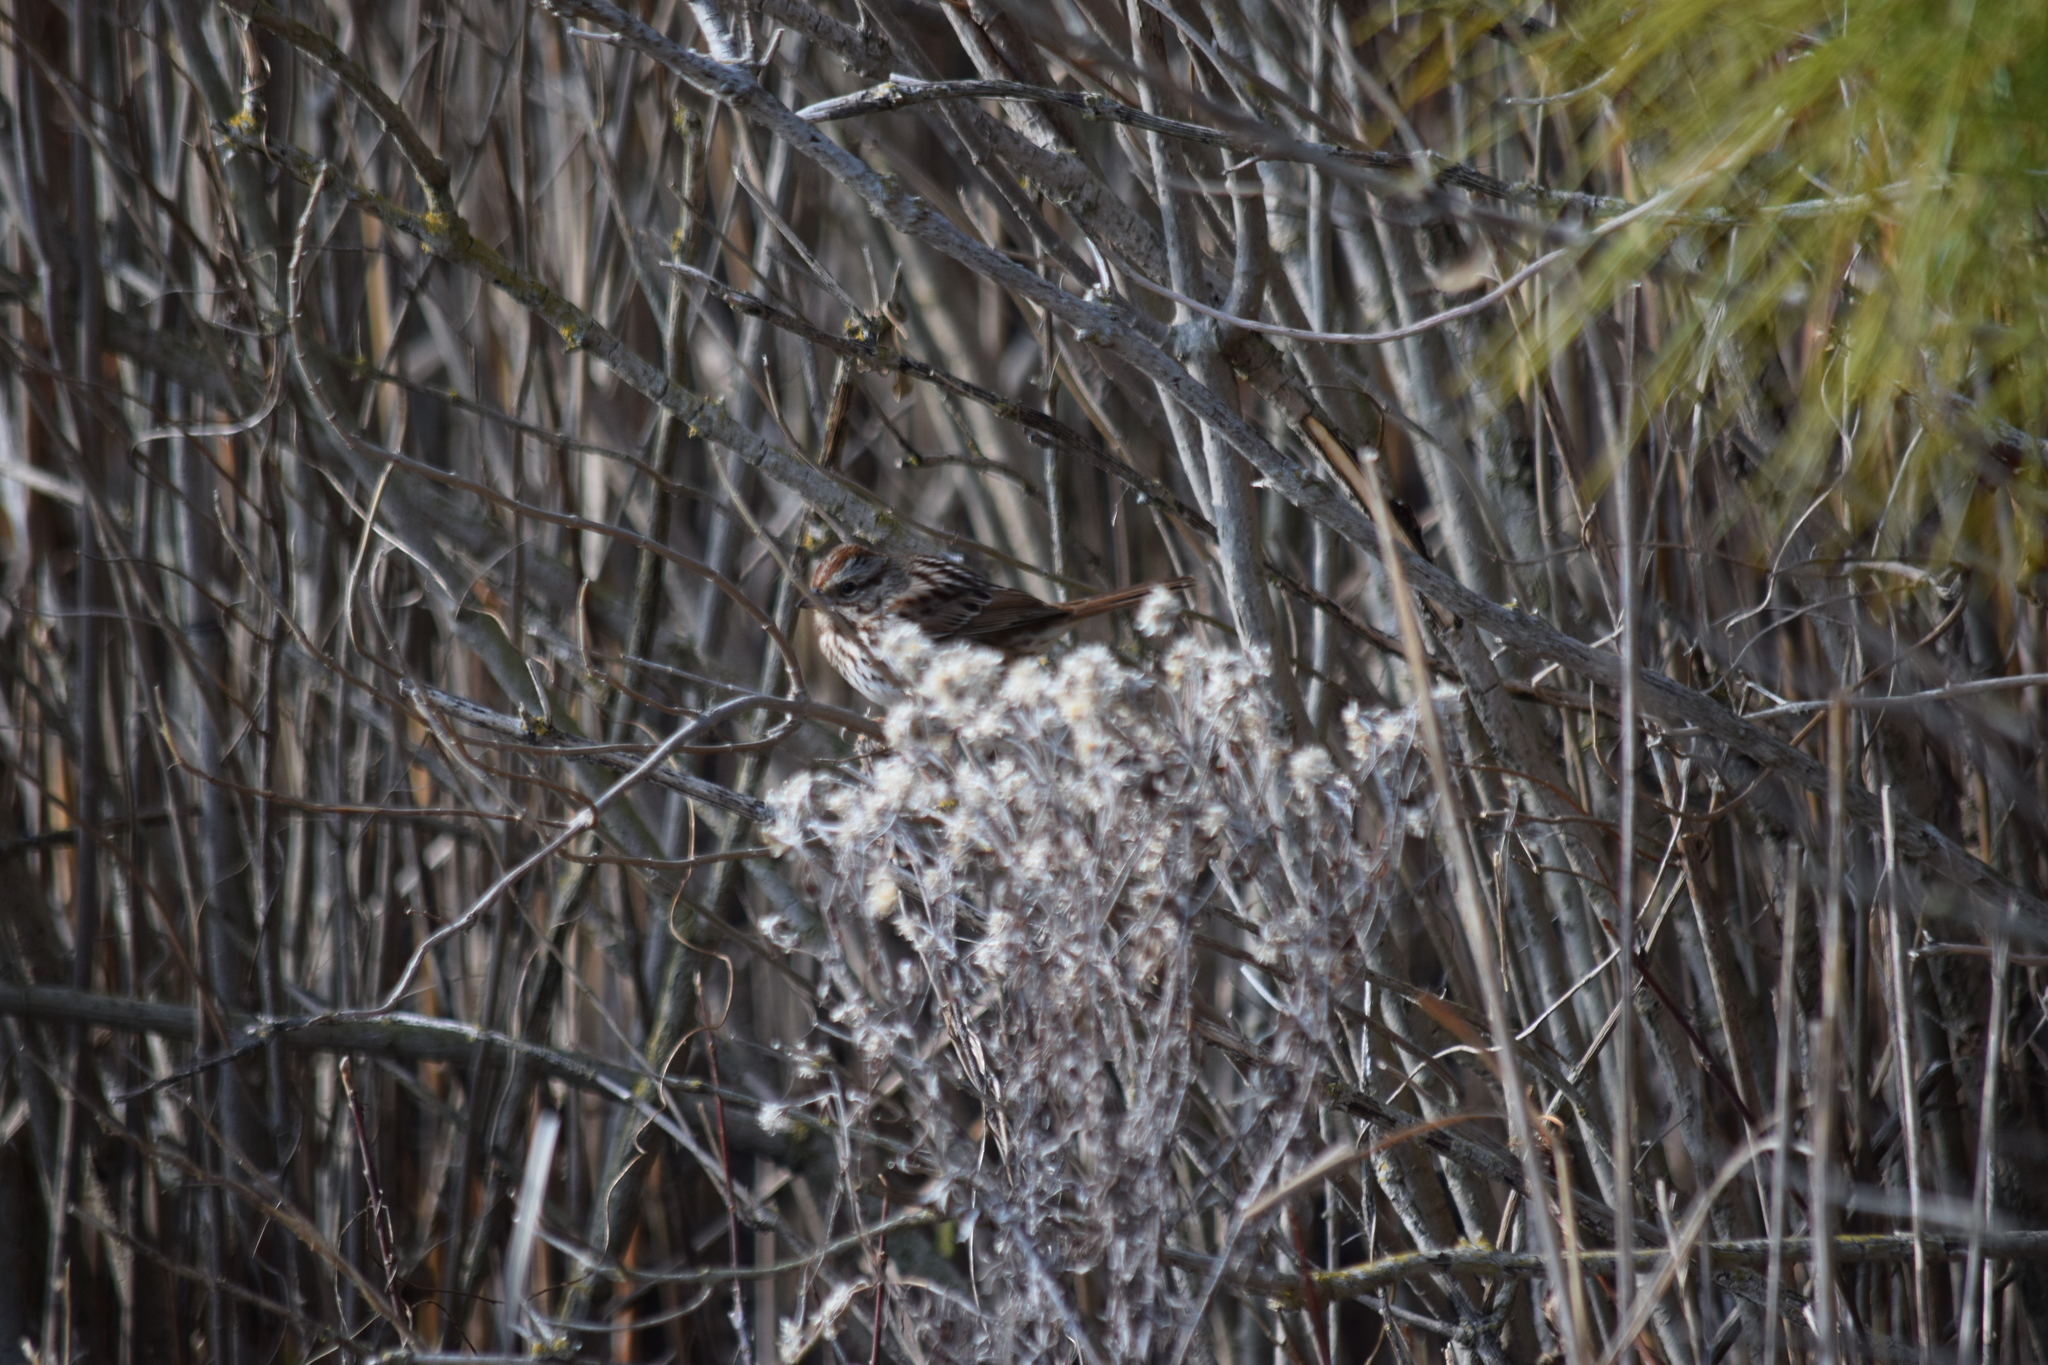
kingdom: Animalia
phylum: Chordata
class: Aves
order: Passeriformes
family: Passerellidae
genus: Melospiza
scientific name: Melospiza melodia
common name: Song sparrow
